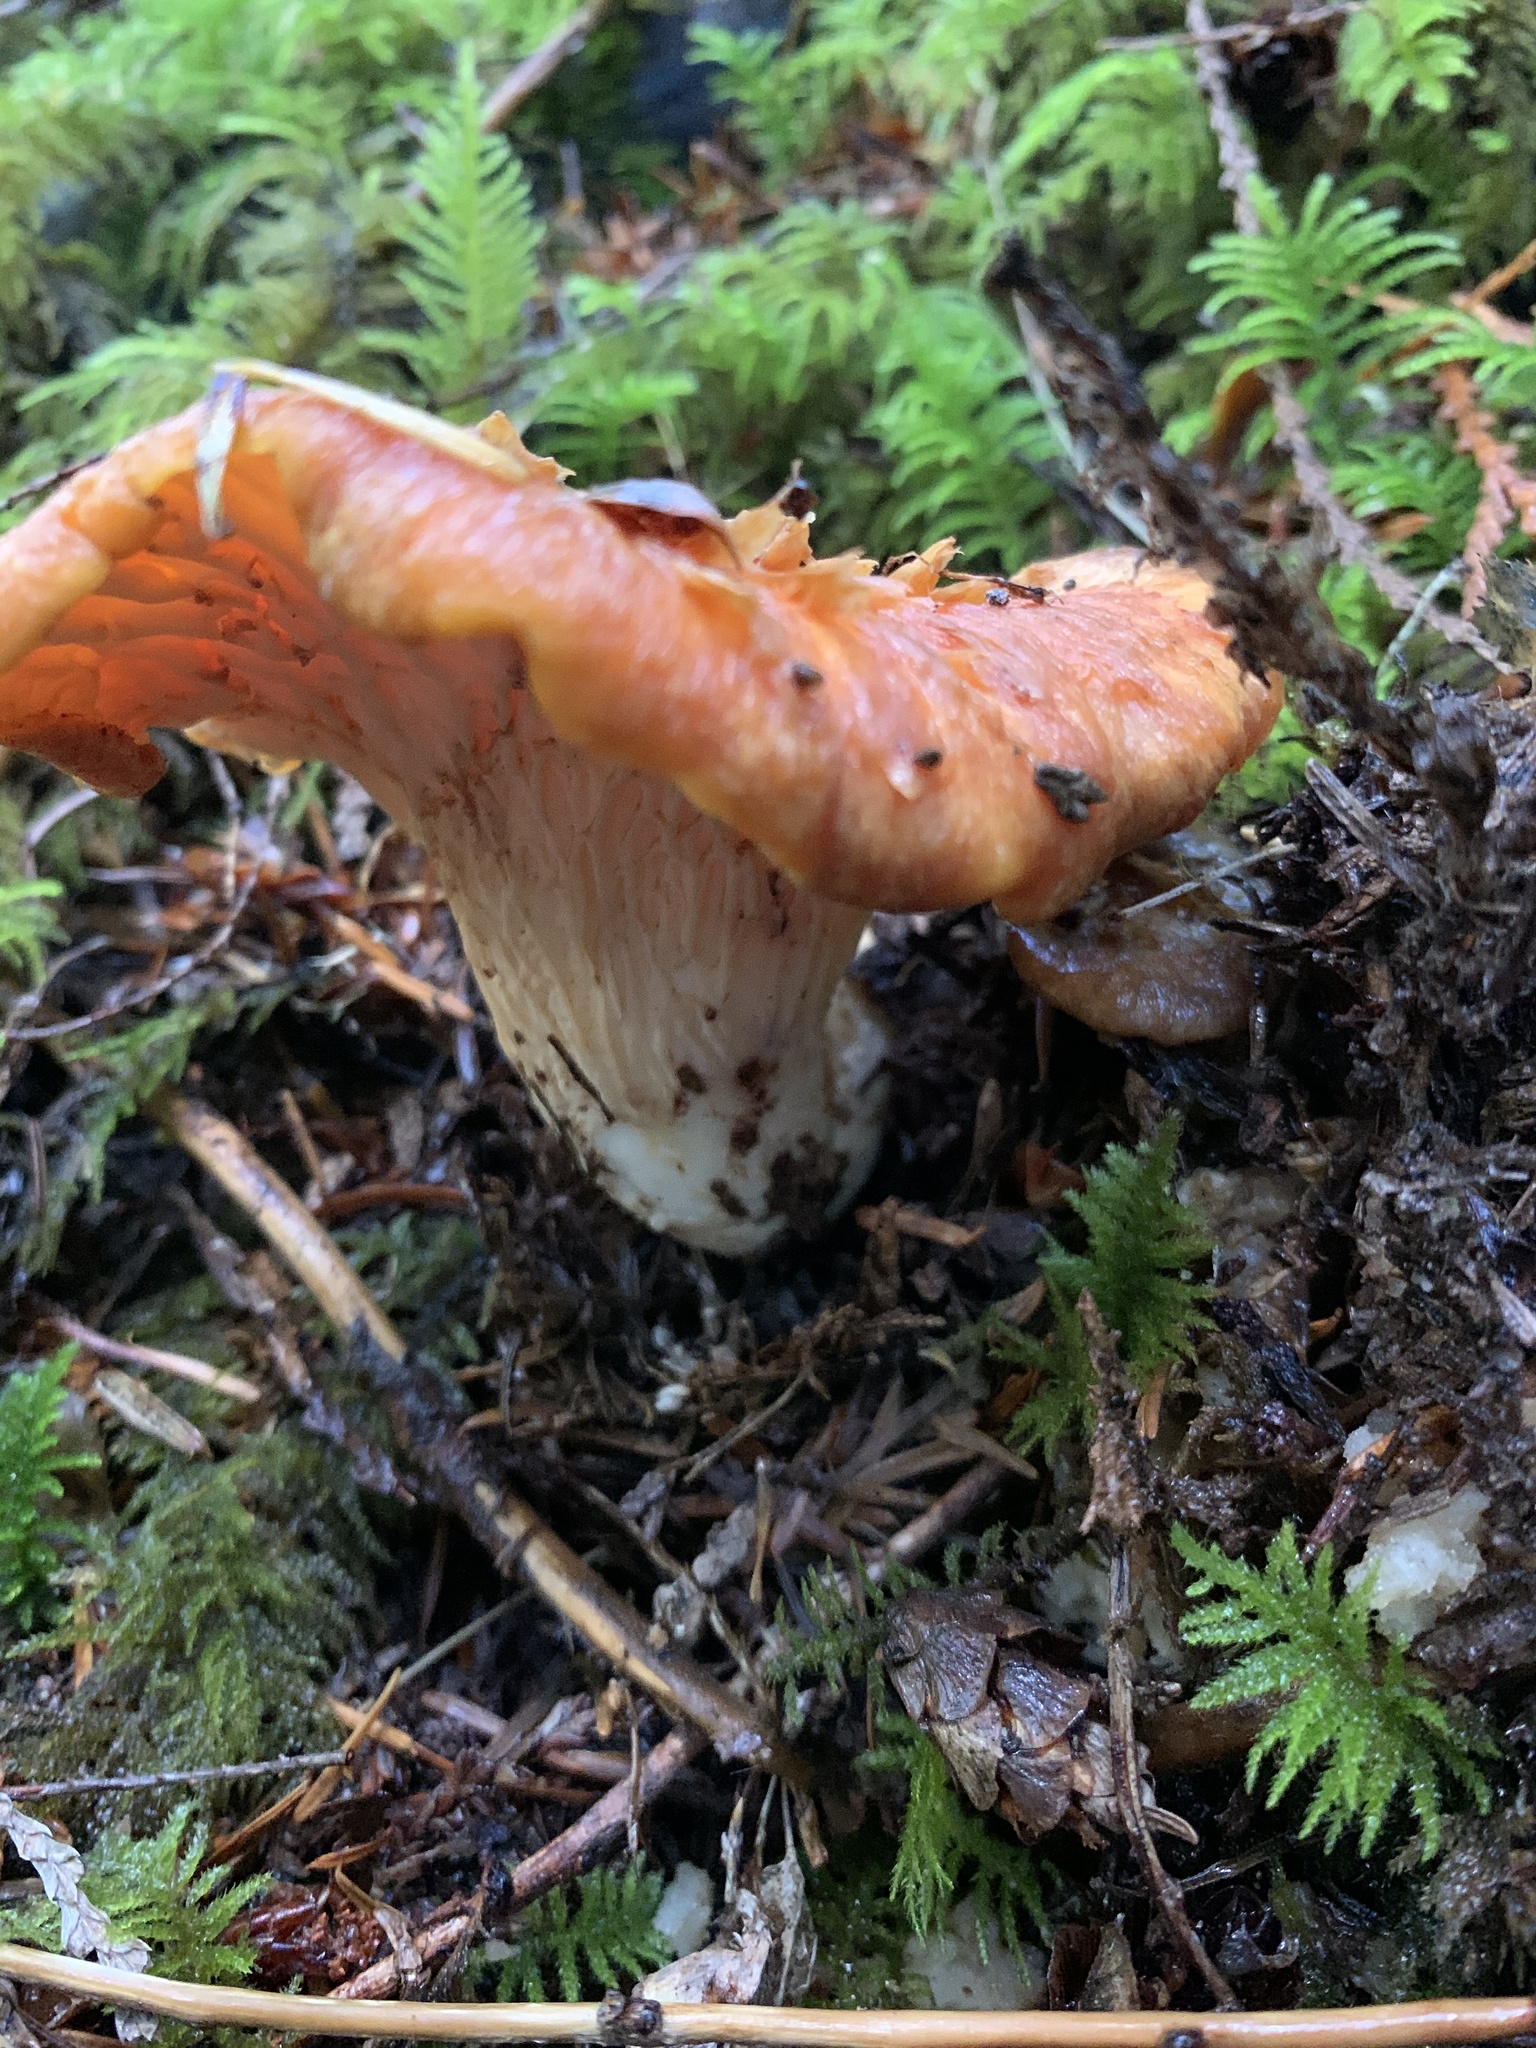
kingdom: Fungi
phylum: Basidiomycota
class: Agaricomycetes
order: Gomphales
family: Gomphaceae
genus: Turbinellus
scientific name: Turbinellus floccosus
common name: Scaly chanterelle
